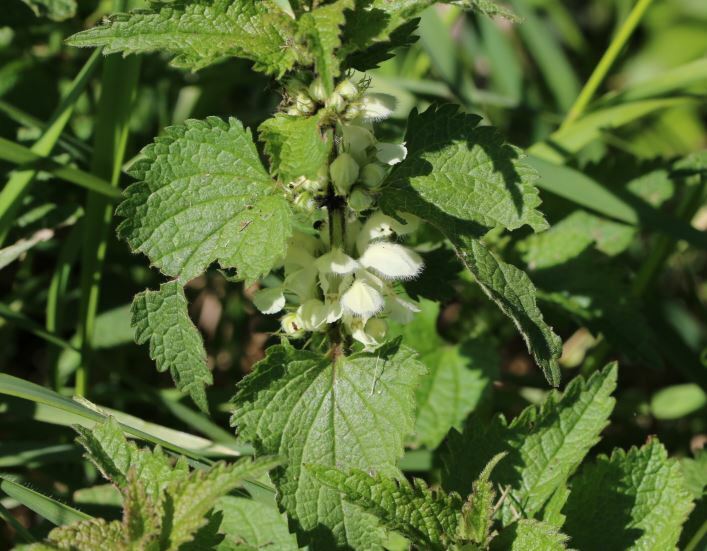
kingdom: Plantae
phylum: Tracheophyta
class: Magnoliopsida
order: Lamiales
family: Lamiaceae
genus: Lamium
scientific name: Lamium album
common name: White dead-nettle
